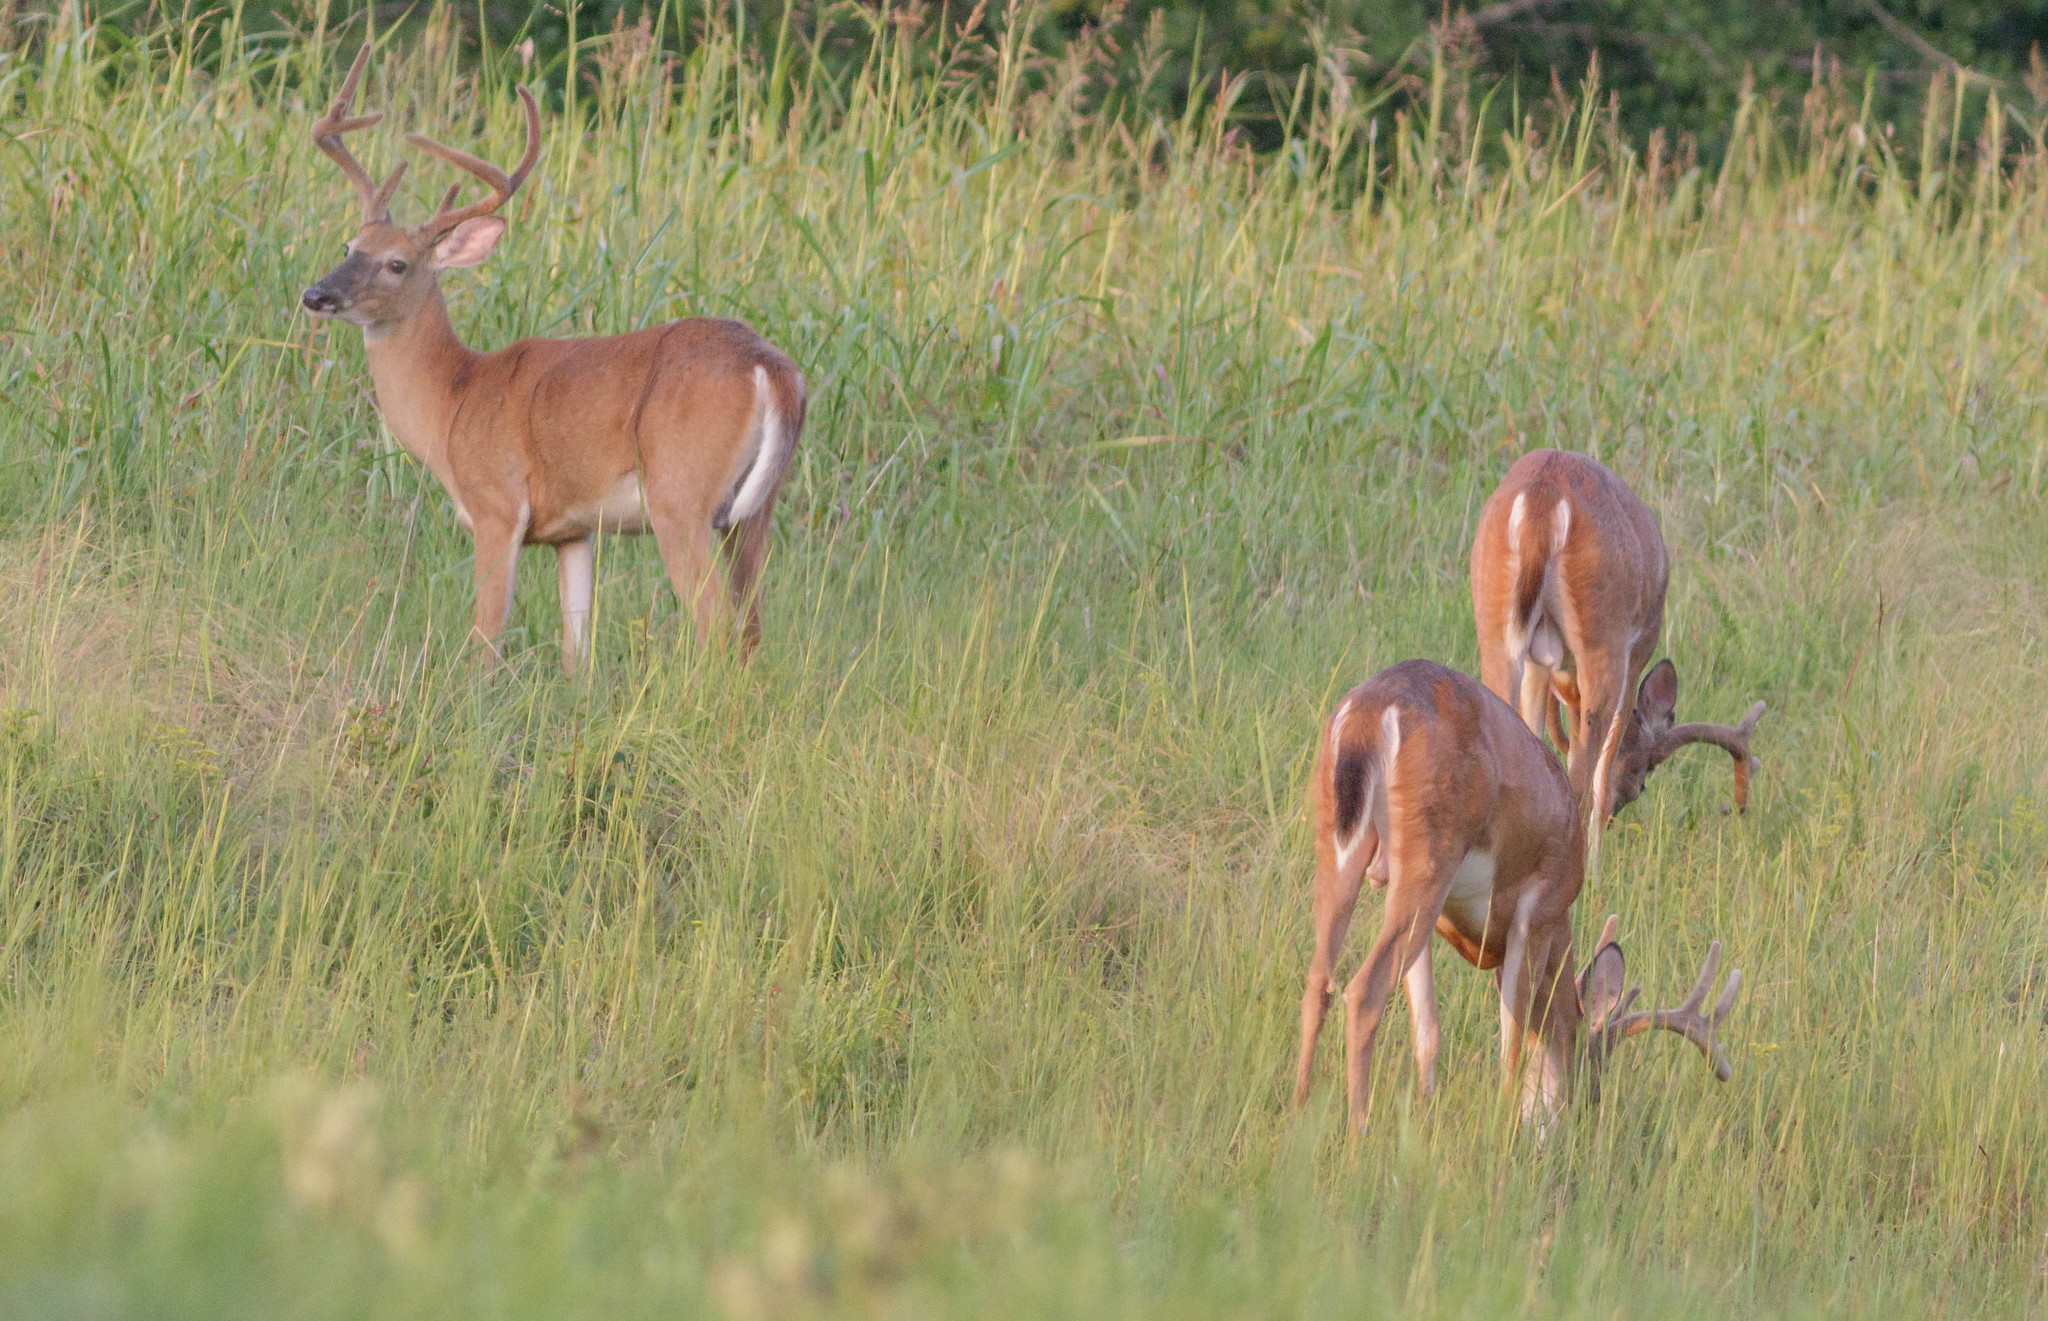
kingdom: Animalia
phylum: Chordata
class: Mammalia
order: Artiodactyla
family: Cervidae
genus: Odocoileus
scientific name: Odocoileus virginianus
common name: White-tailed deer
